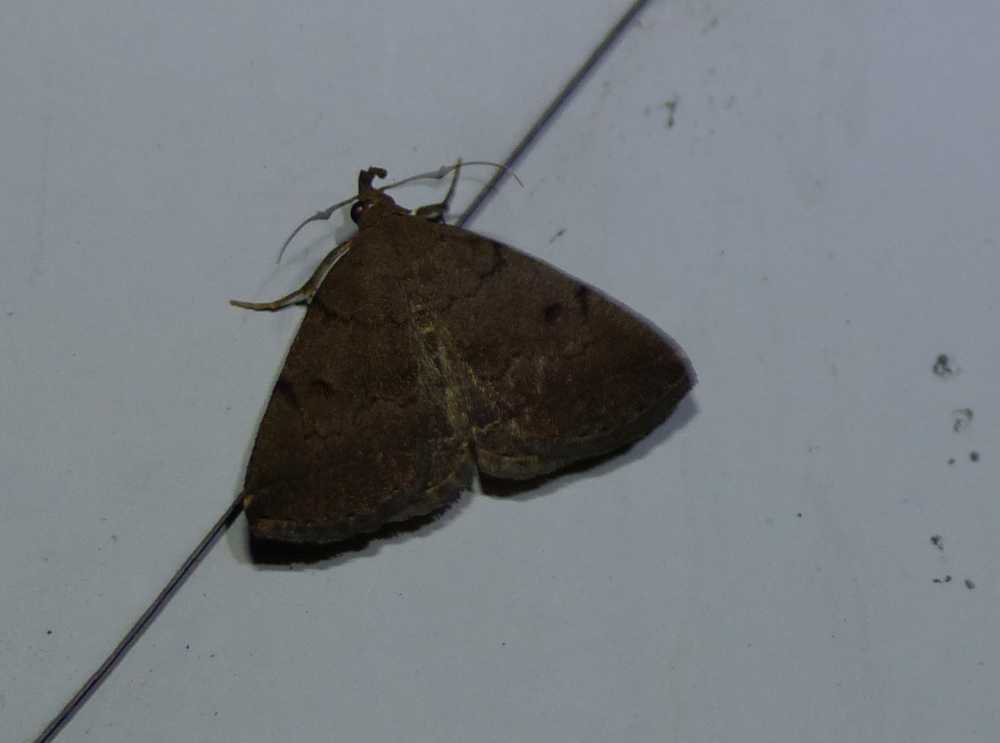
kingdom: Animalia
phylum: Arthropoda
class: Insecta
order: Lepidoptera
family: Erebidae
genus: Zanclognatha
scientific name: Zanclognatha dentata
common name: Toothed fan-foot
